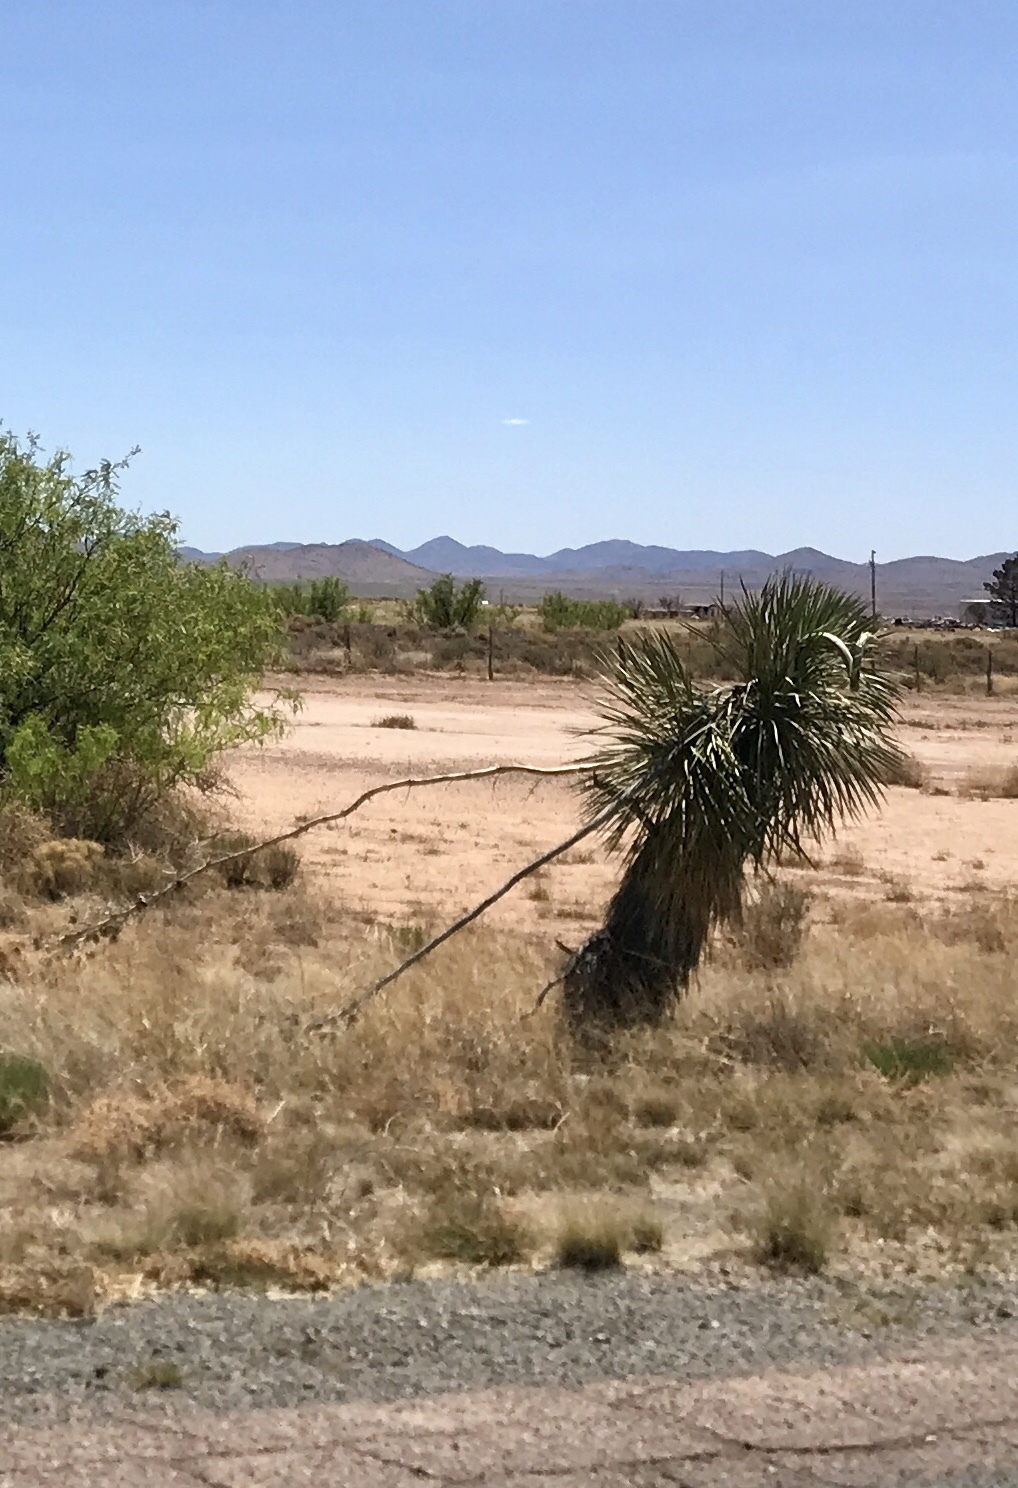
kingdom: Plantae
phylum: Tracheophyta
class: Liliopsida
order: Asparagales
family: Asparagaceae
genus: Yucca
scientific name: Yucca elata
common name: Palmella
